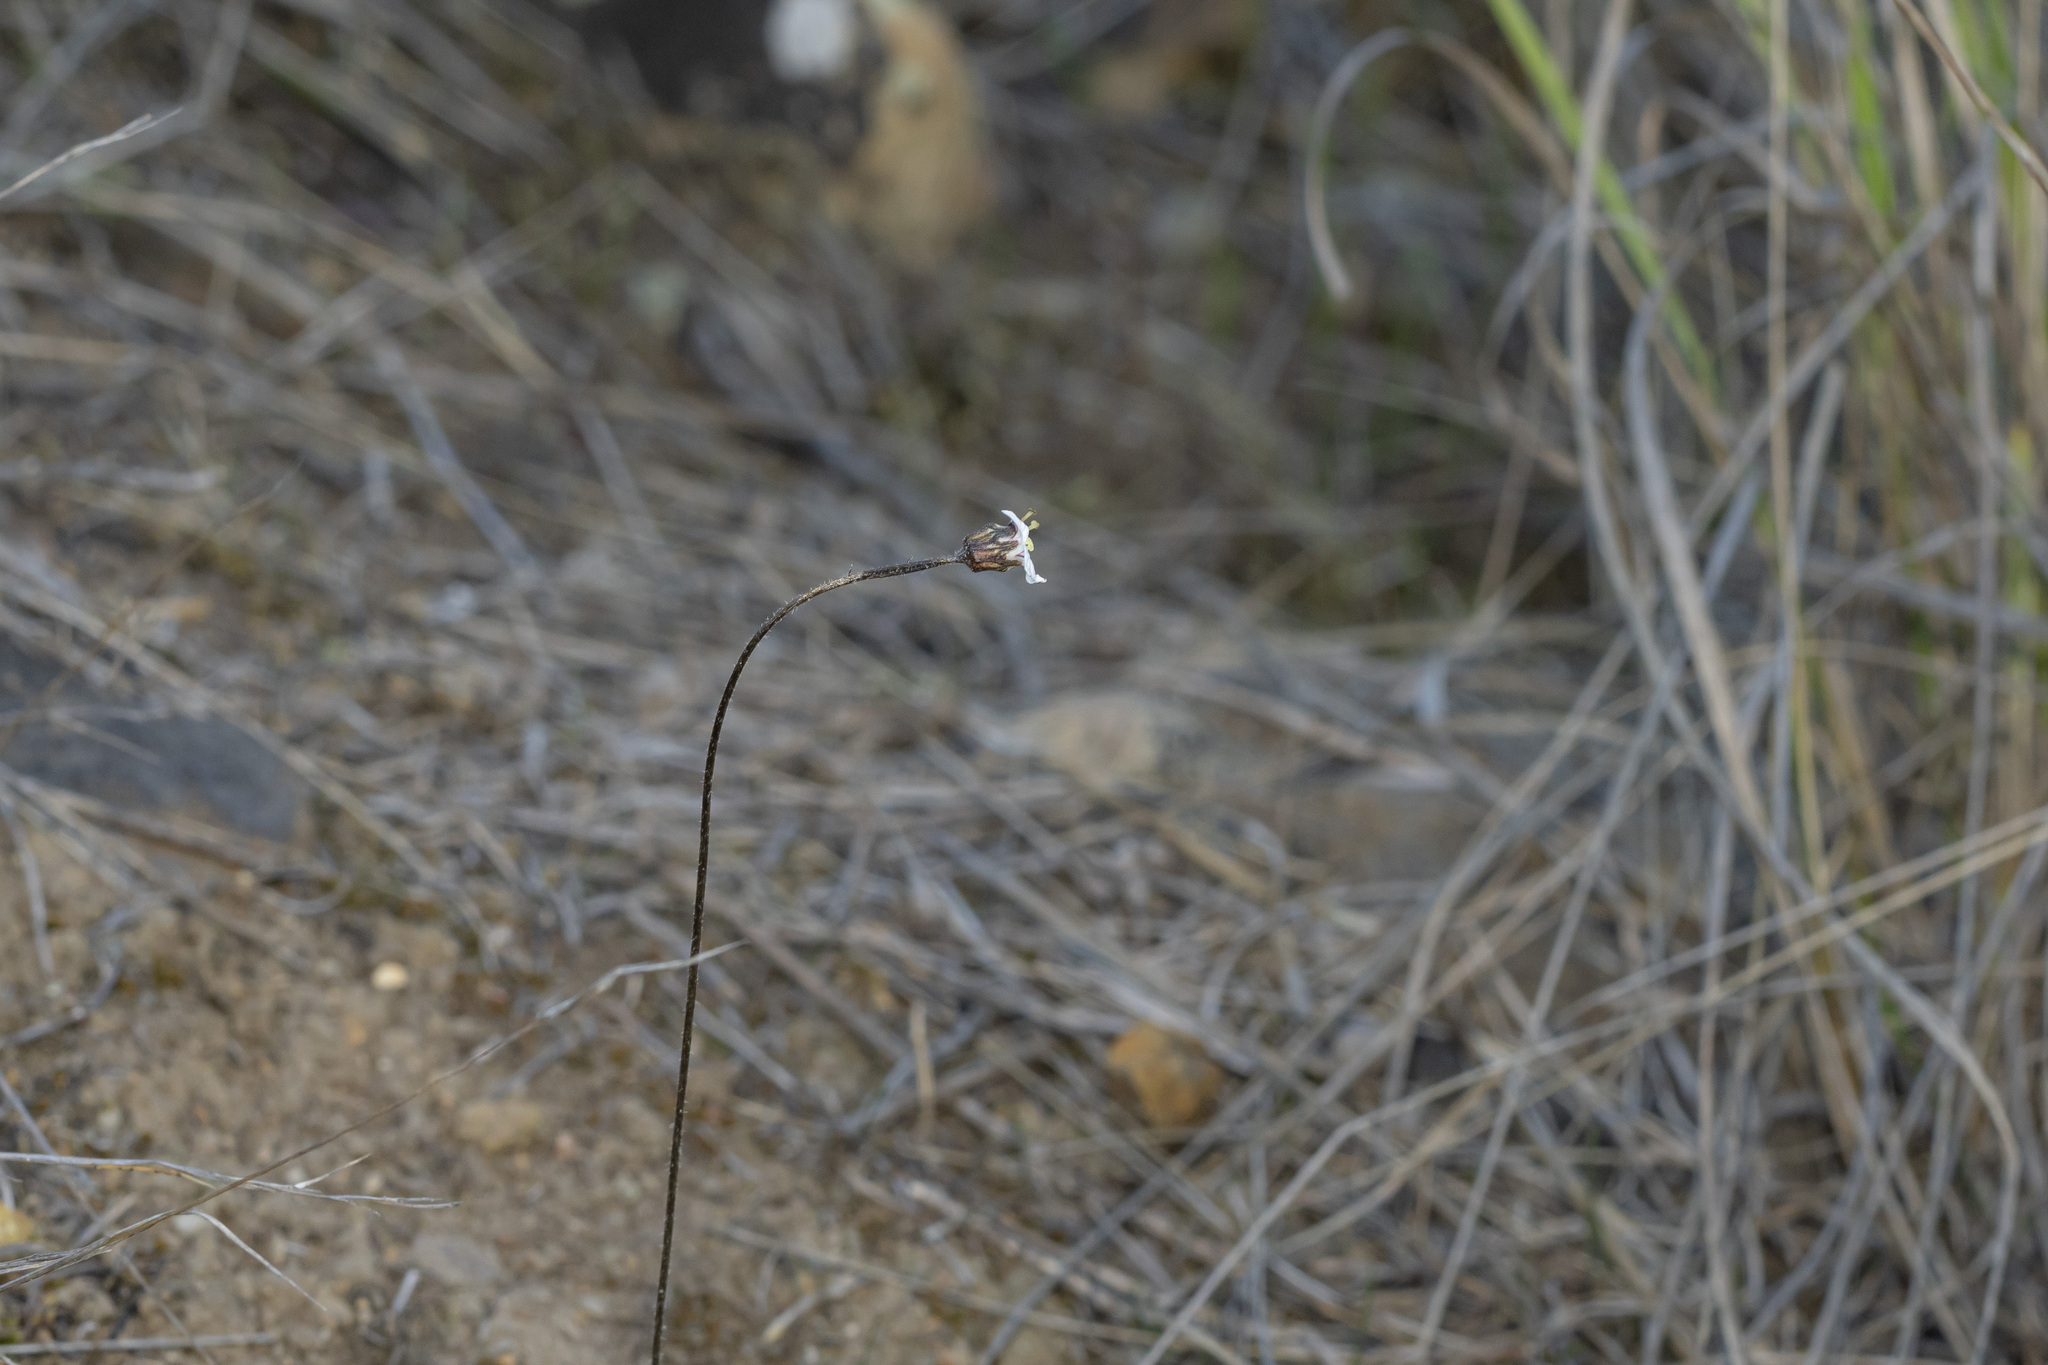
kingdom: Plantae
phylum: Tracheophyta
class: Magnoliopsida
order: Saxifragales
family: Saxifragaceae
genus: Jepsonia
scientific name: Jepsonia parryi
